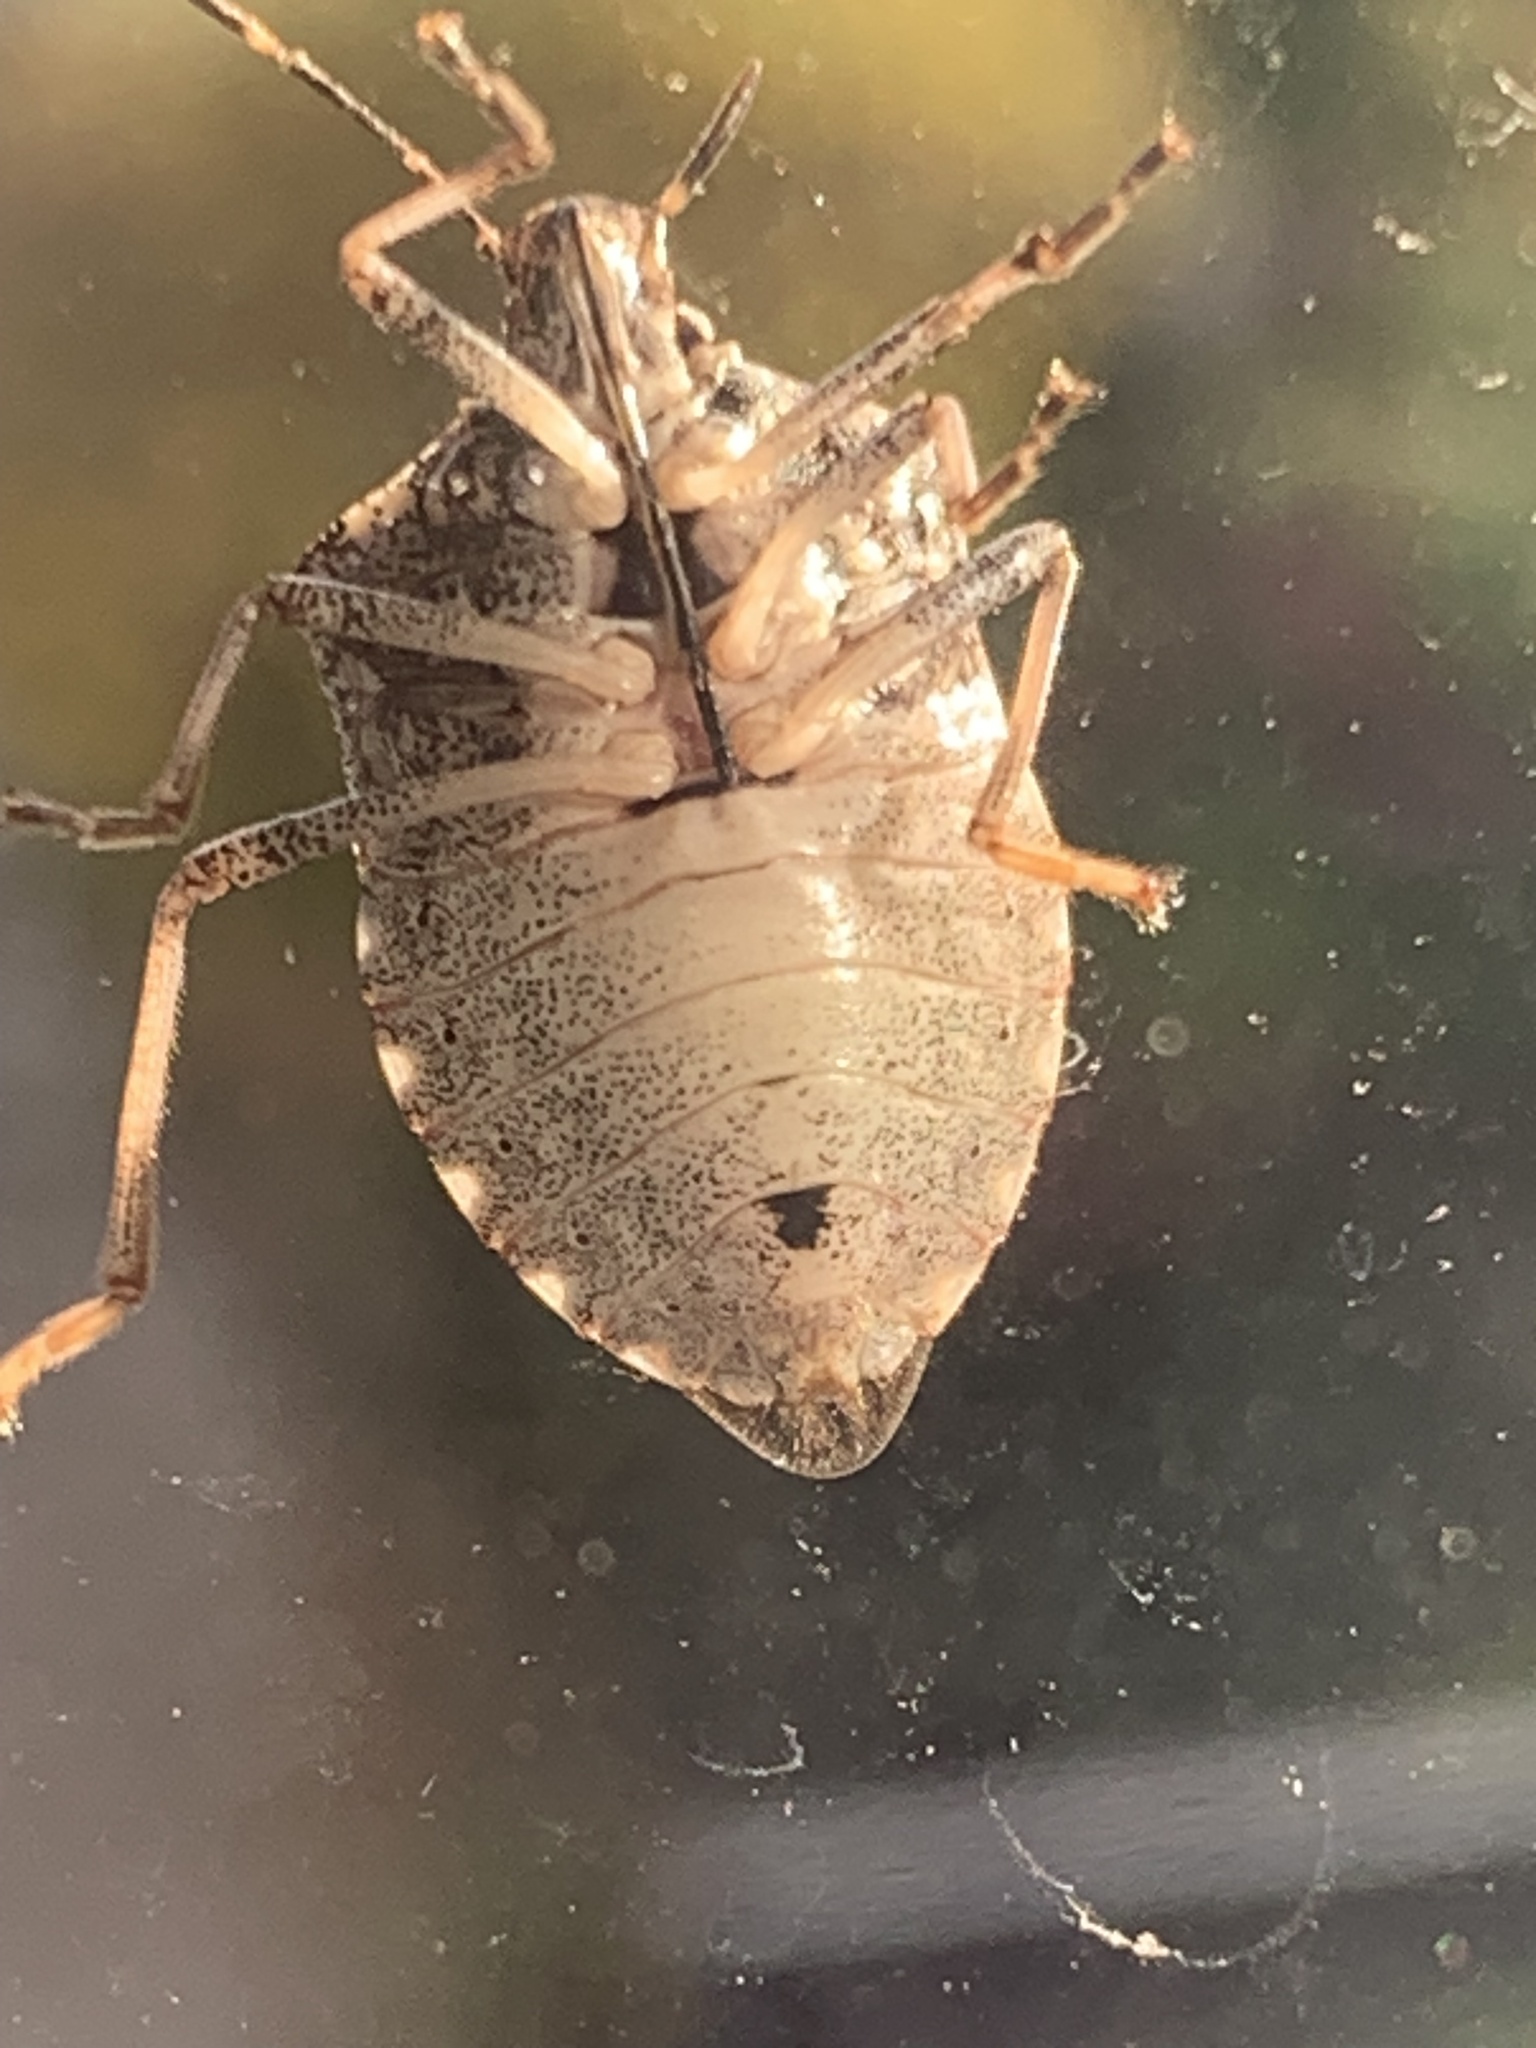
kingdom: Animalia
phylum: Arthropoda
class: Insecta
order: Hemiptera
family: Pentatomidae
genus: Halyomorpha
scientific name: Halyomorpha halys
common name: Brown marmorated stink bug
